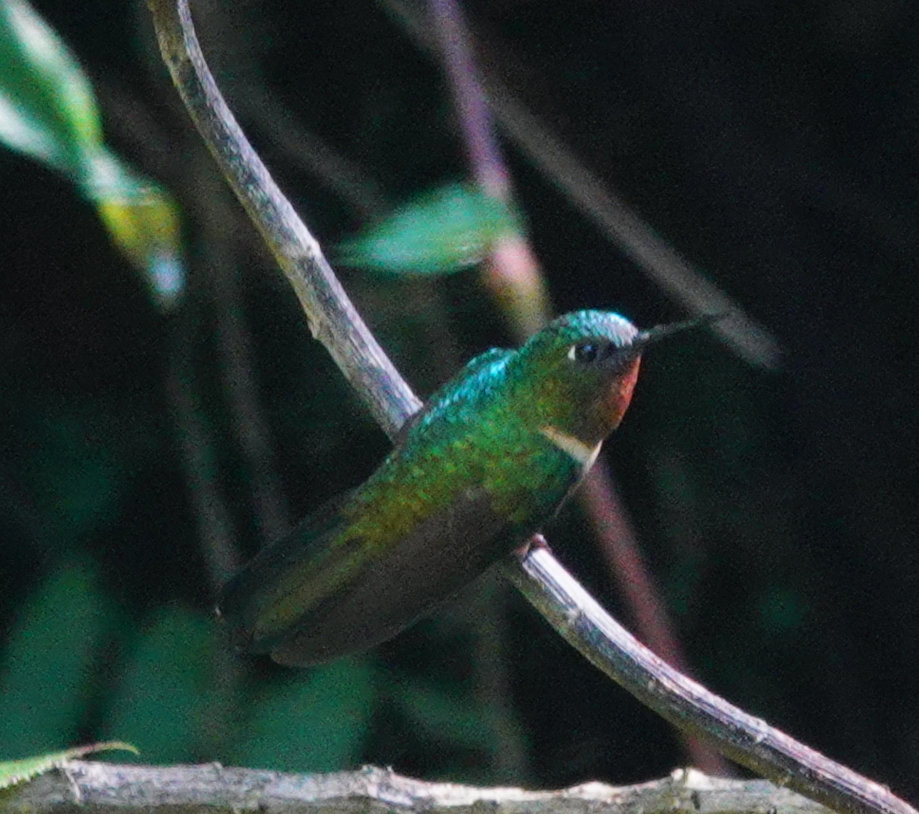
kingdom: Animalia
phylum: Chordata
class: Aves
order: Apodiformes
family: Trochilidae
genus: Heliangelus
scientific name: Heliangelus amethysticollis
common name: Amethyst-throated sunangel
